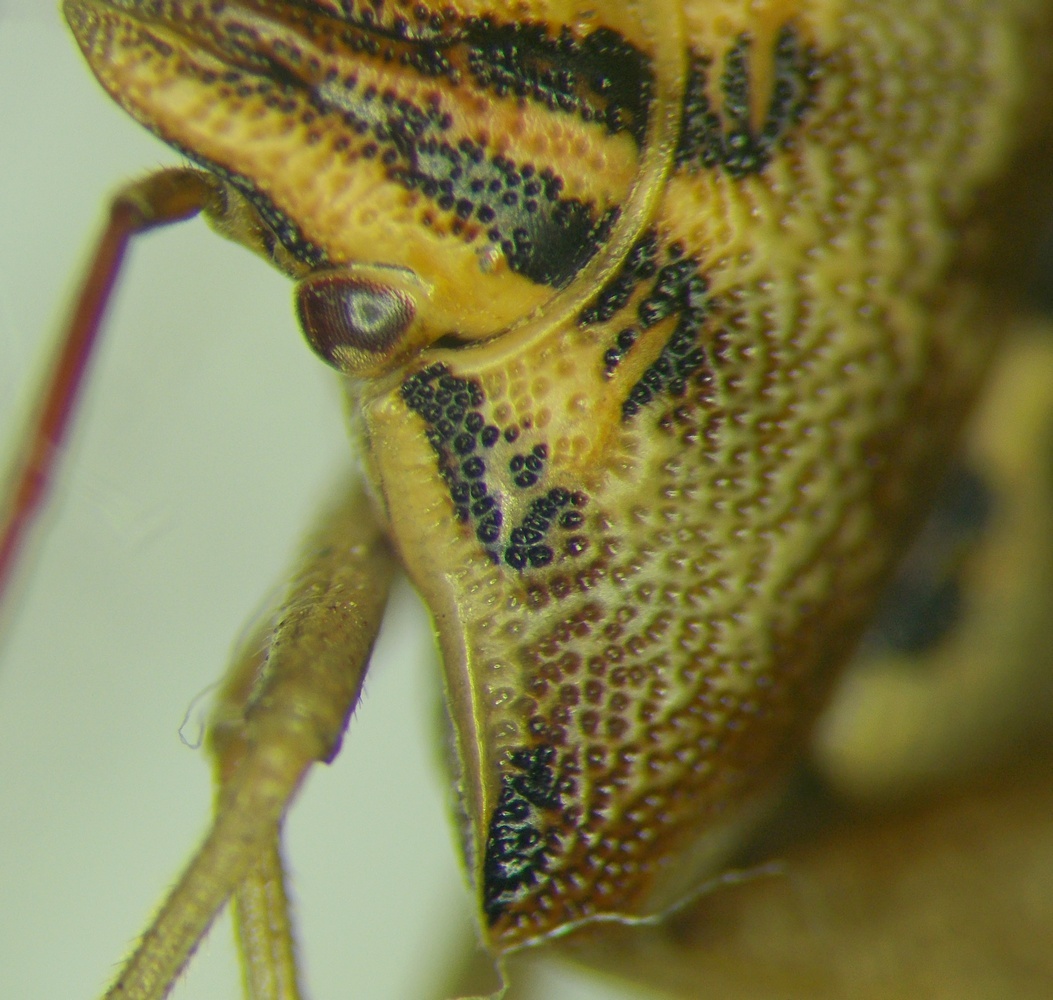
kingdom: Animalia
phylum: Arthropoda
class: Insecta
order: Hemiptera
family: Miridae
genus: Orthops
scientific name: Orthops kalmii
